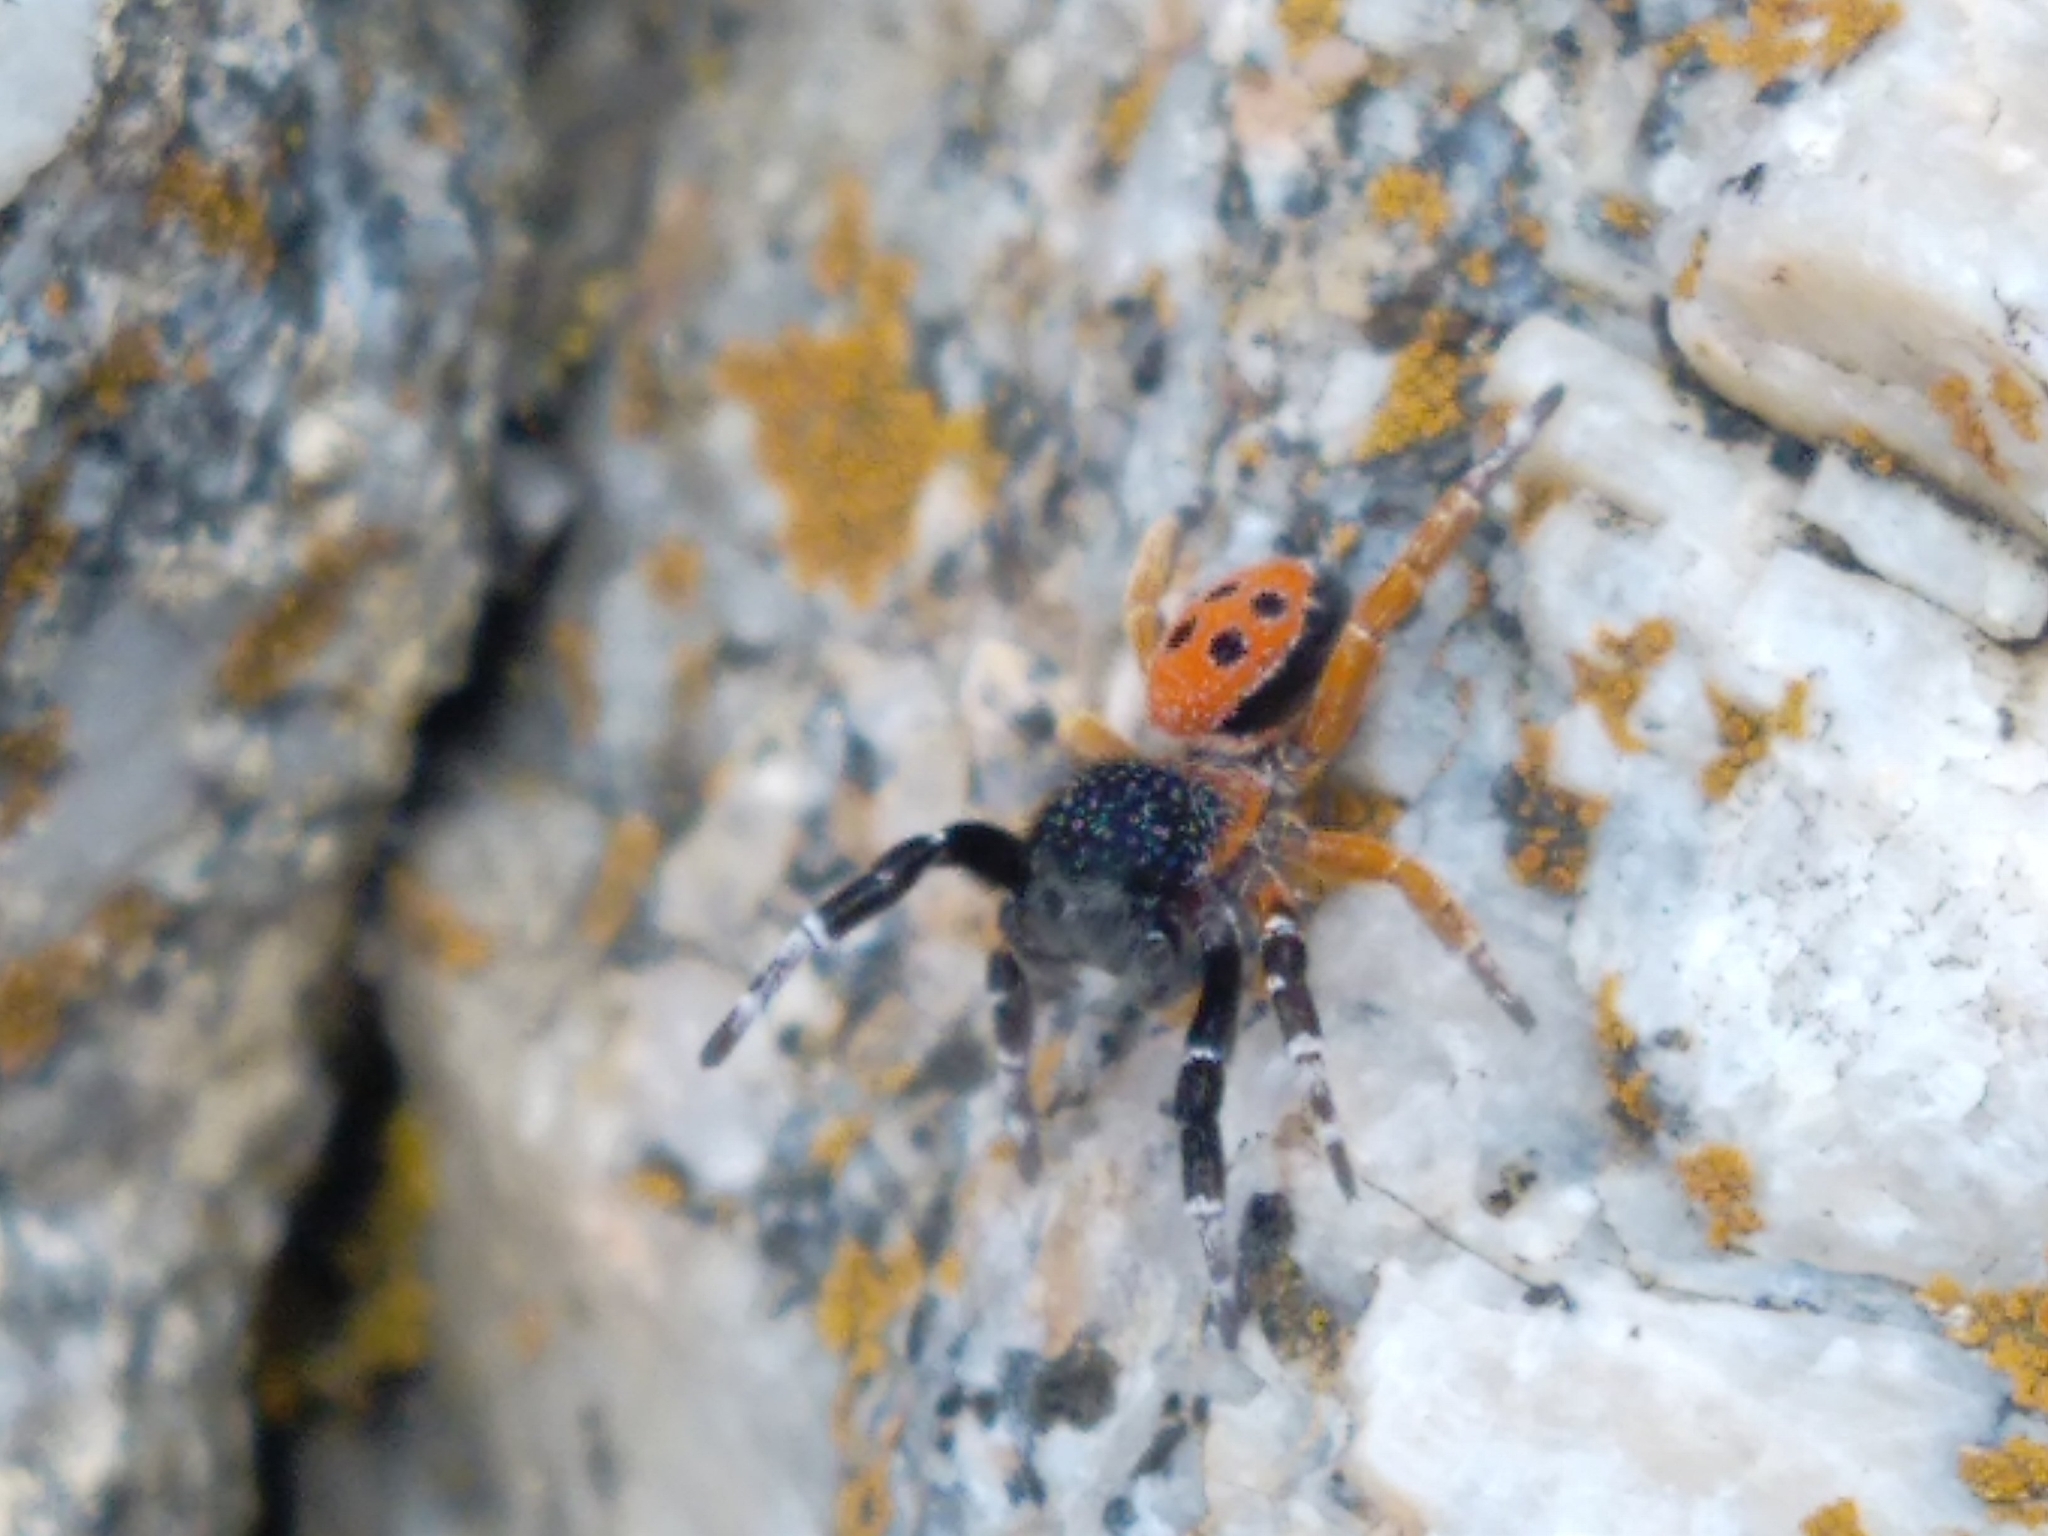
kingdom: Animalia
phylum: Arthropoda
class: Arachnida
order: Araneae
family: Eresidae
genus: Eresus
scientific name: Eresus kollari
